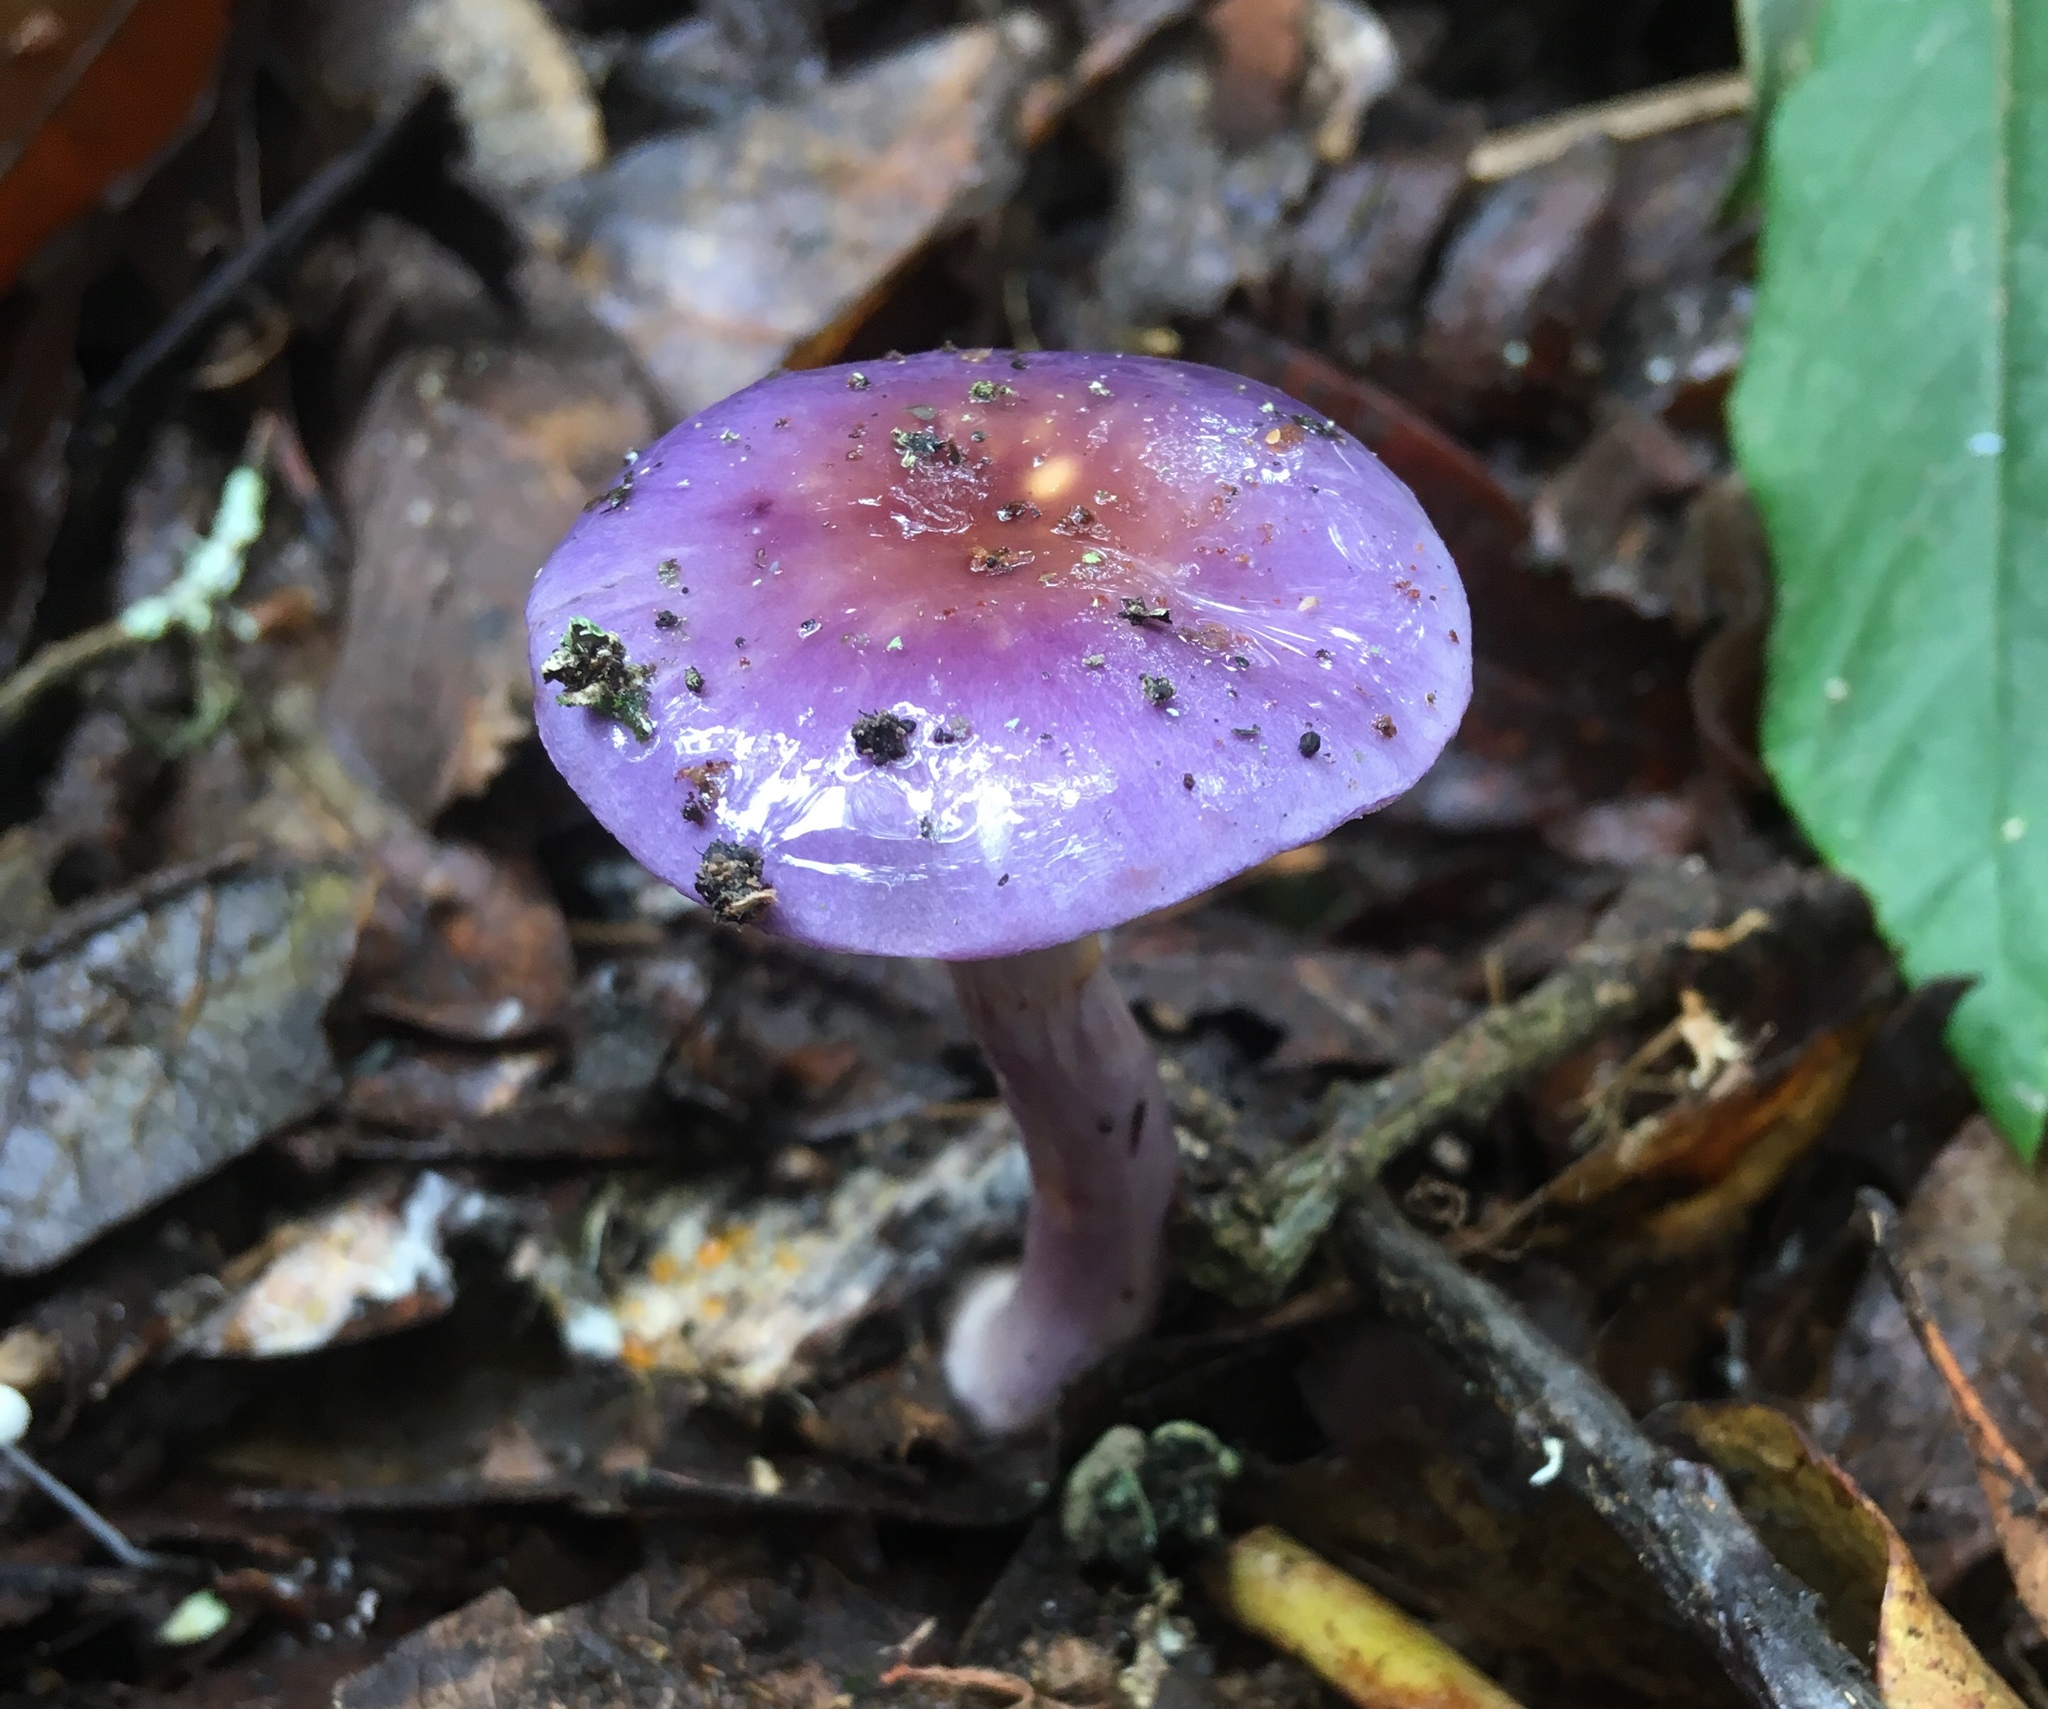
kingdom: Fungi
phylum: Basidiomycota
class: Agaricomycetes
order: Agaricales
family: Cortinariaceae
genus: Cortinarius
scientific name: Cortinarius iodes
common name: Viscid violet cort
